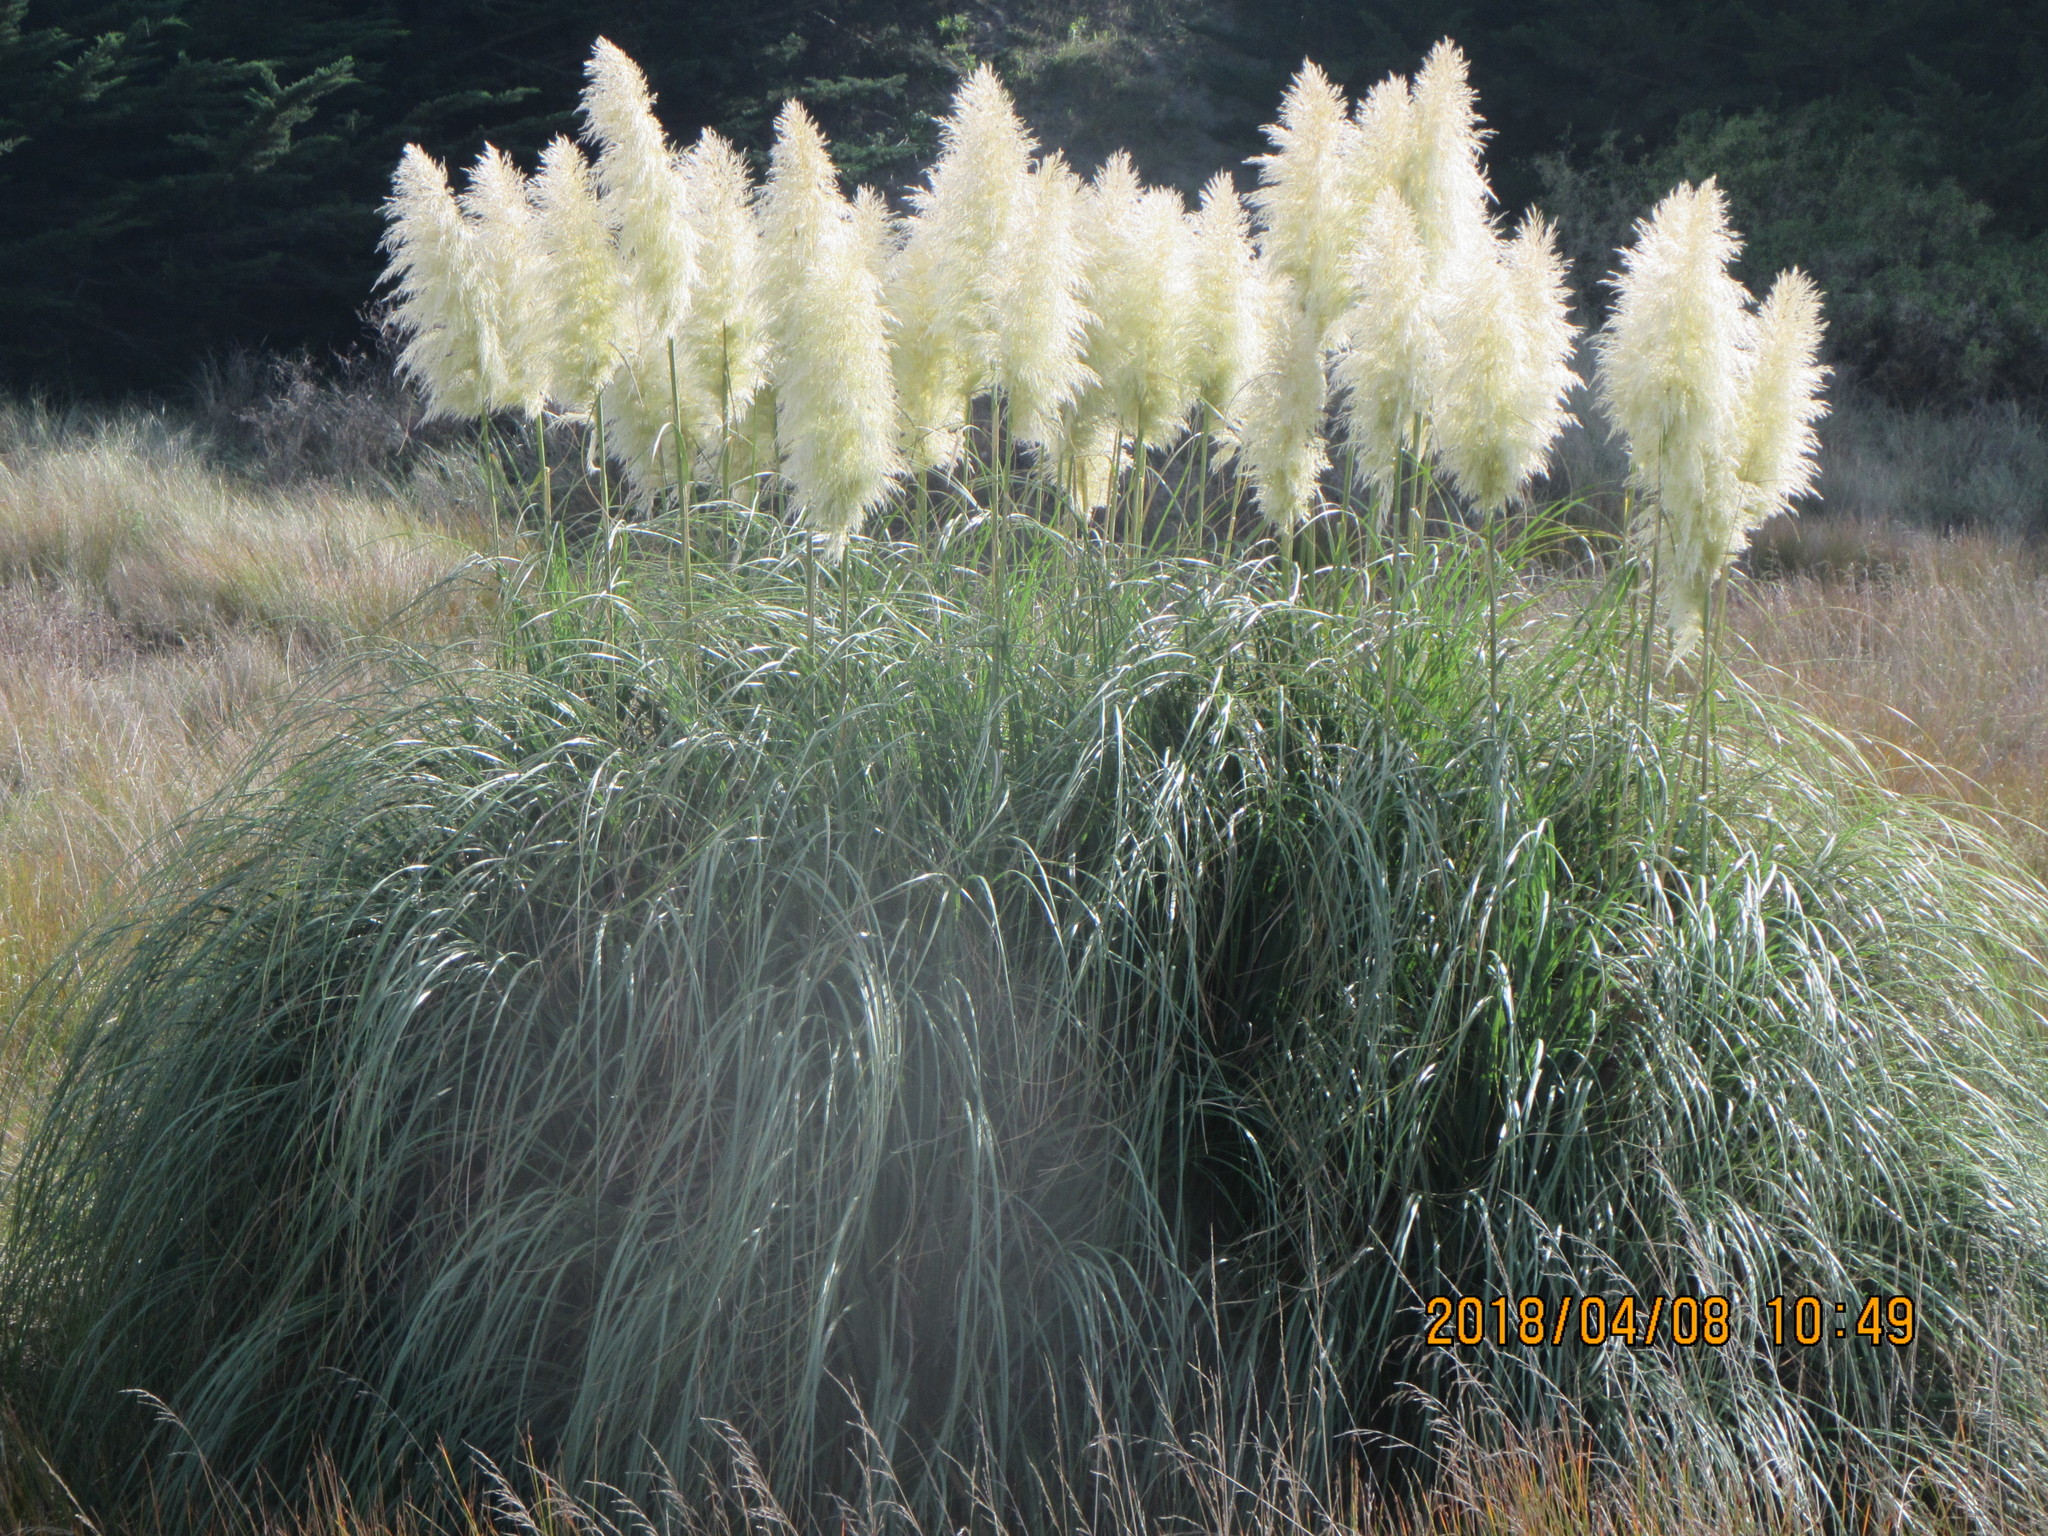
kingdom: Plantae
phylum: Tracheophyta
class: Liliopsida
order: Poales
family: Poaceae
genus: Cortaderia
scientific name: Cortaderia selloana
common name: Uruguayan pampas grass
